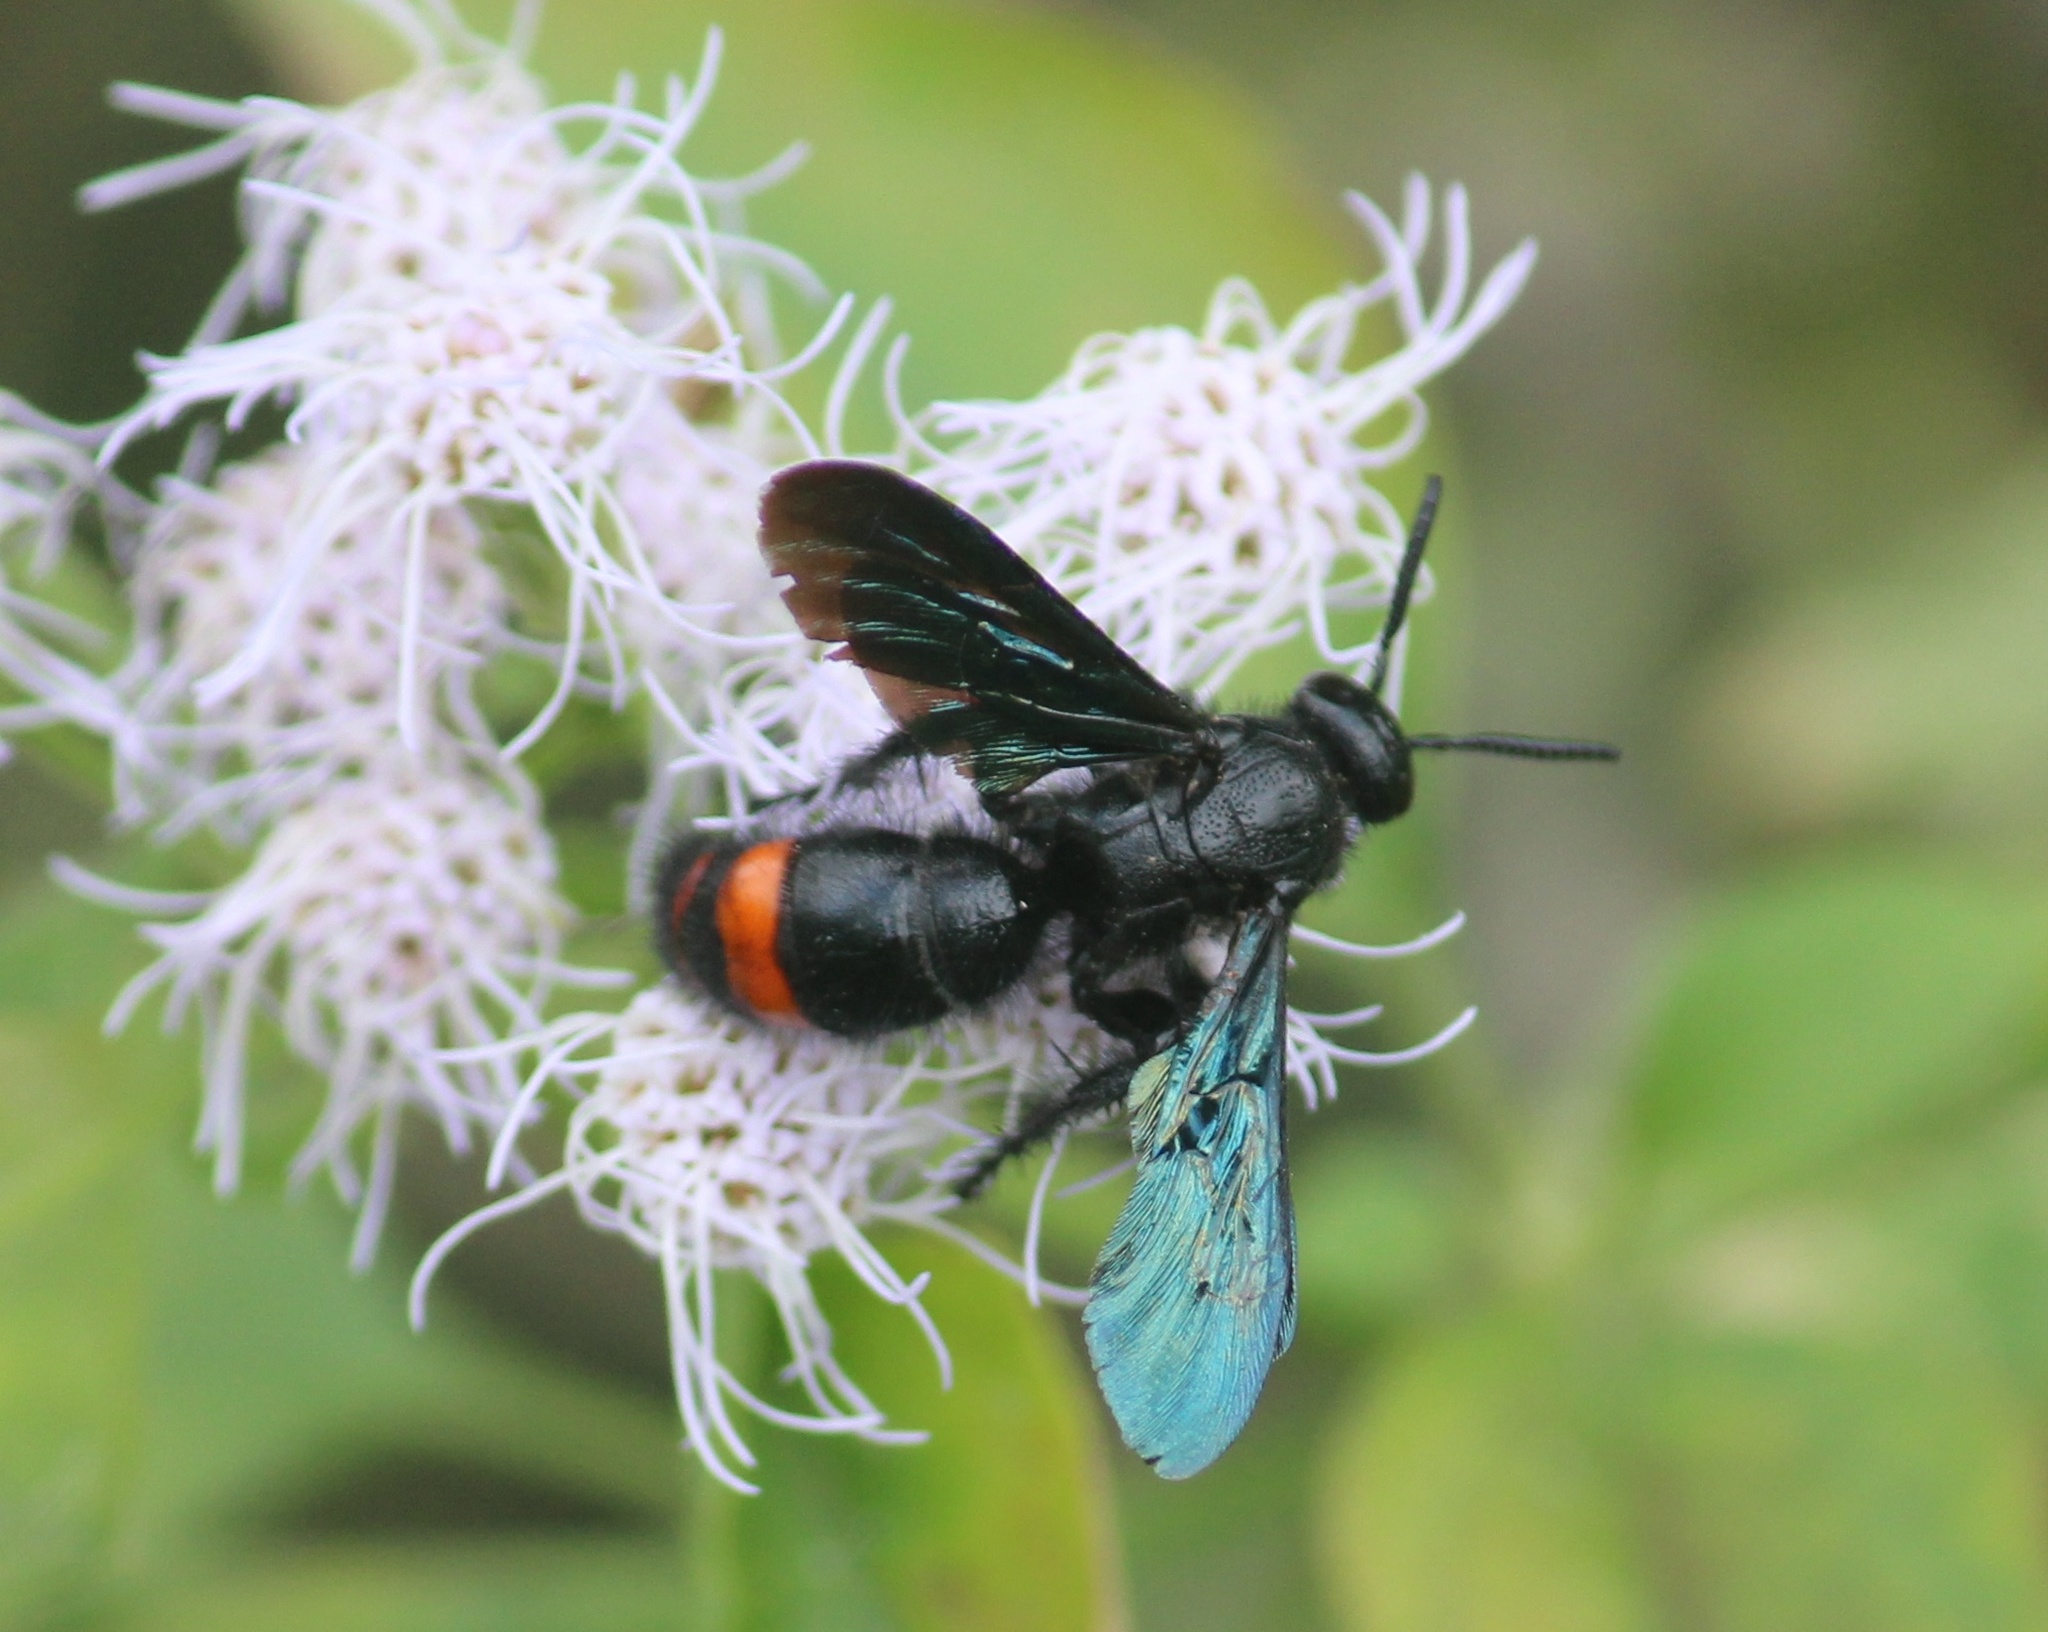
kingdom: Animalia
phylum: Arthropoda
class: Insecta
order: Hymenoptera
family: Scoliidae
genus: Scolia
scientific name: Scolia
